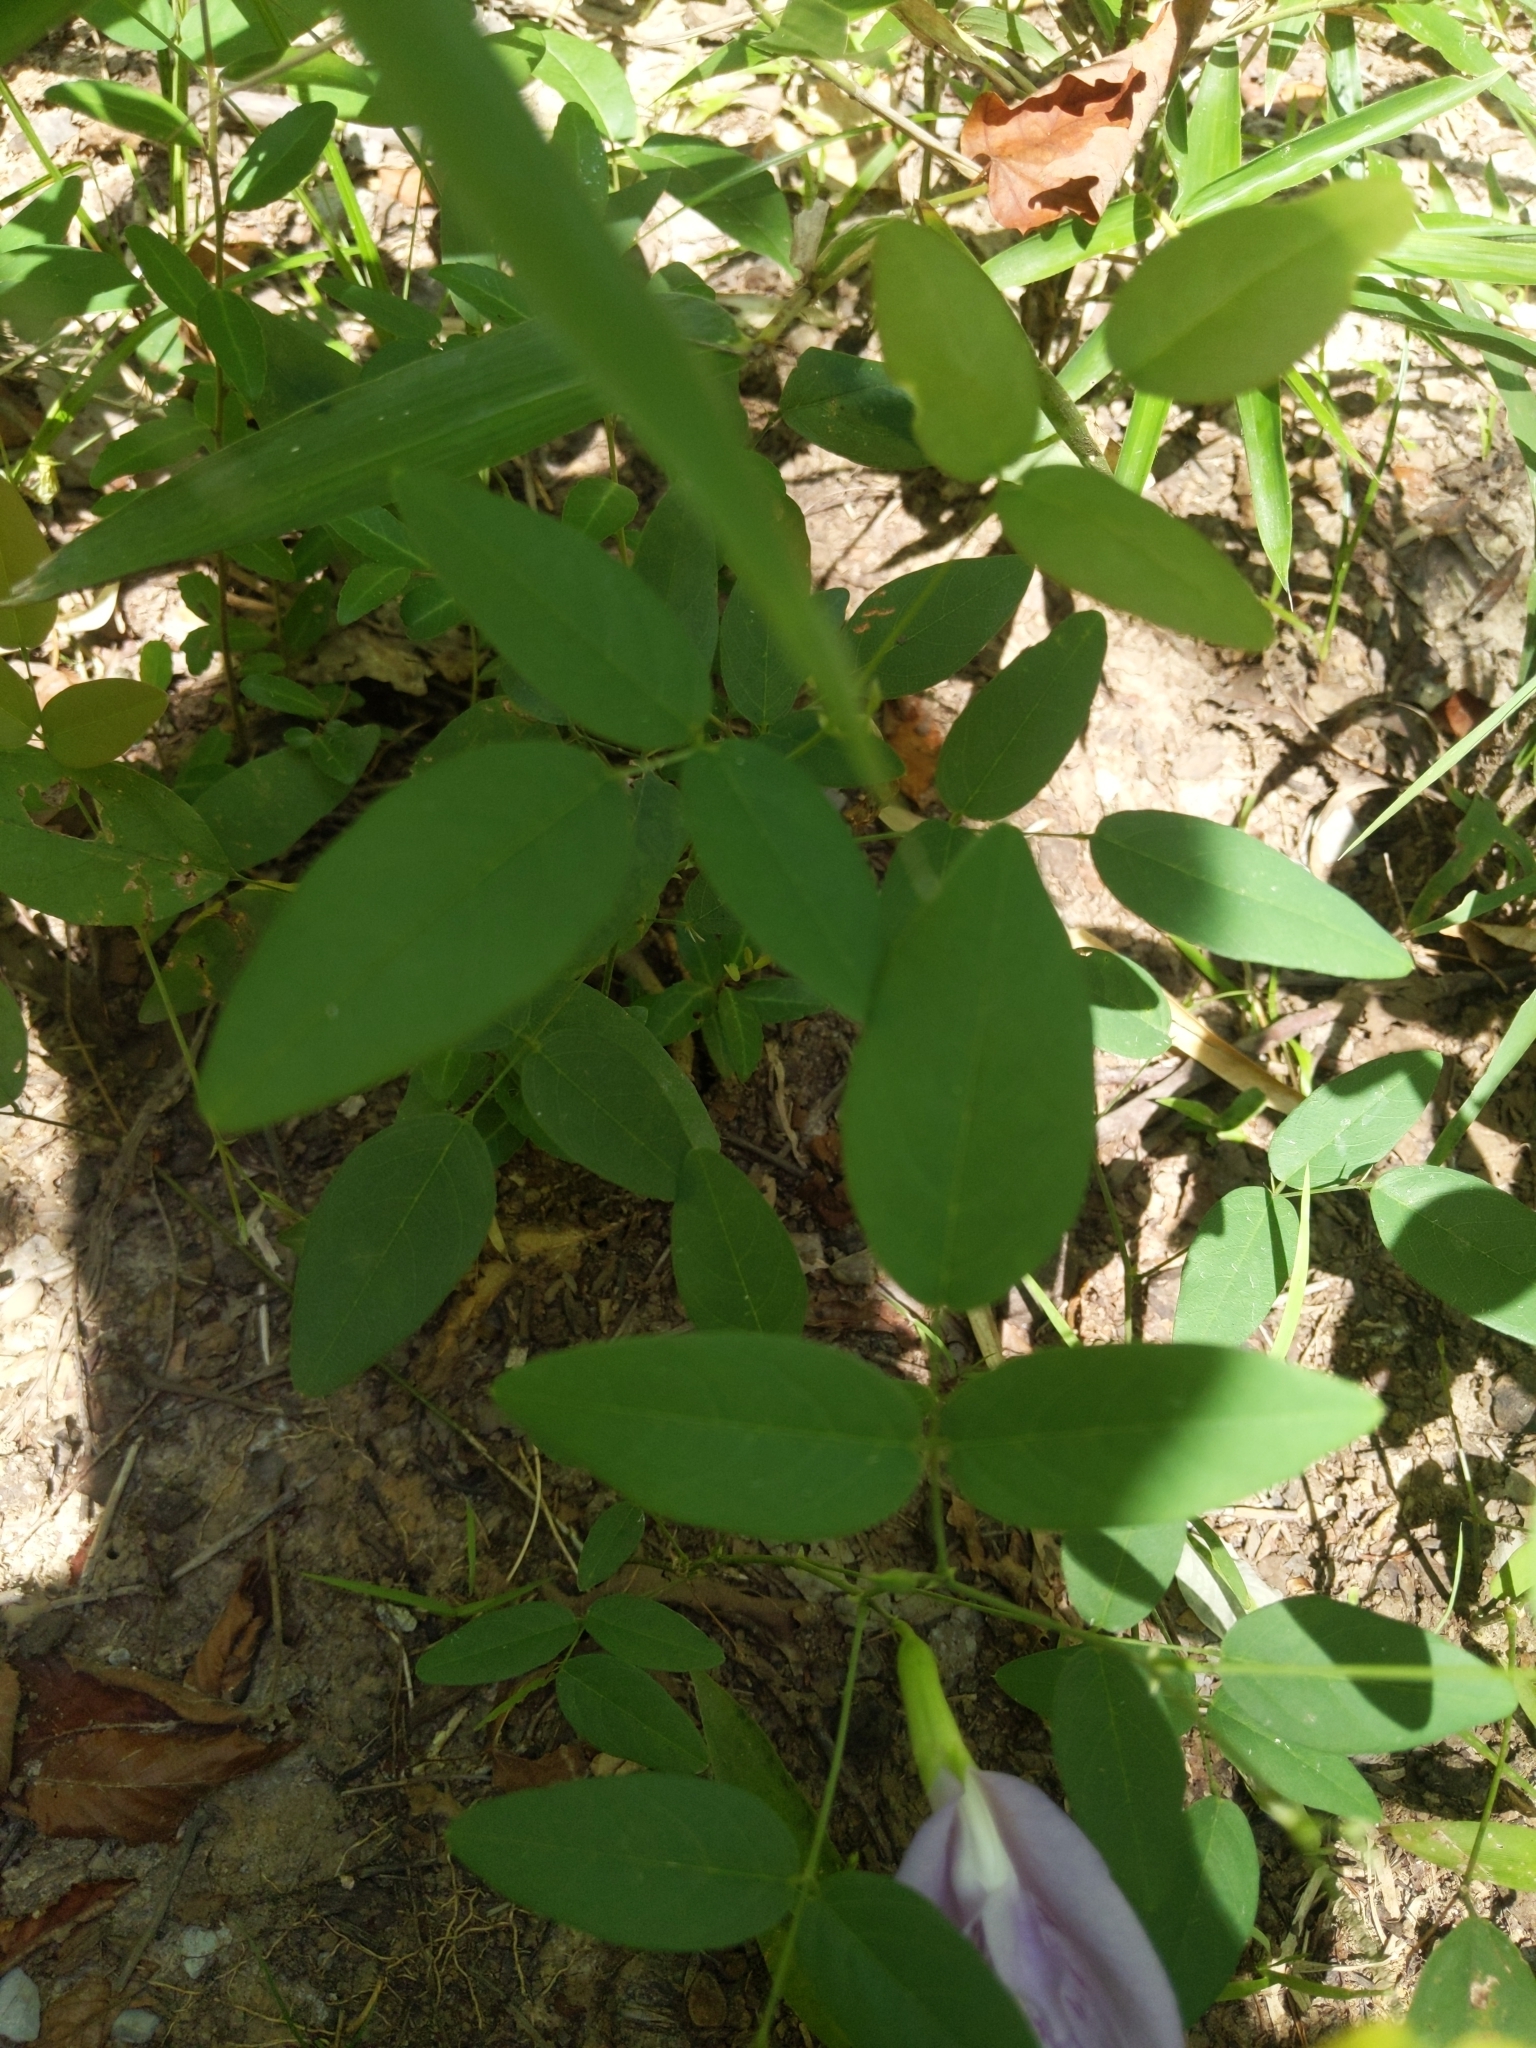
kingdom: Plantae
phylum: Tracheophyta
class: Magnoliopsida
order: Fabales
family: Fabaceae
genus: Clitoria
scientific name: Clitoria mariana
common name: Butterfly-pea
